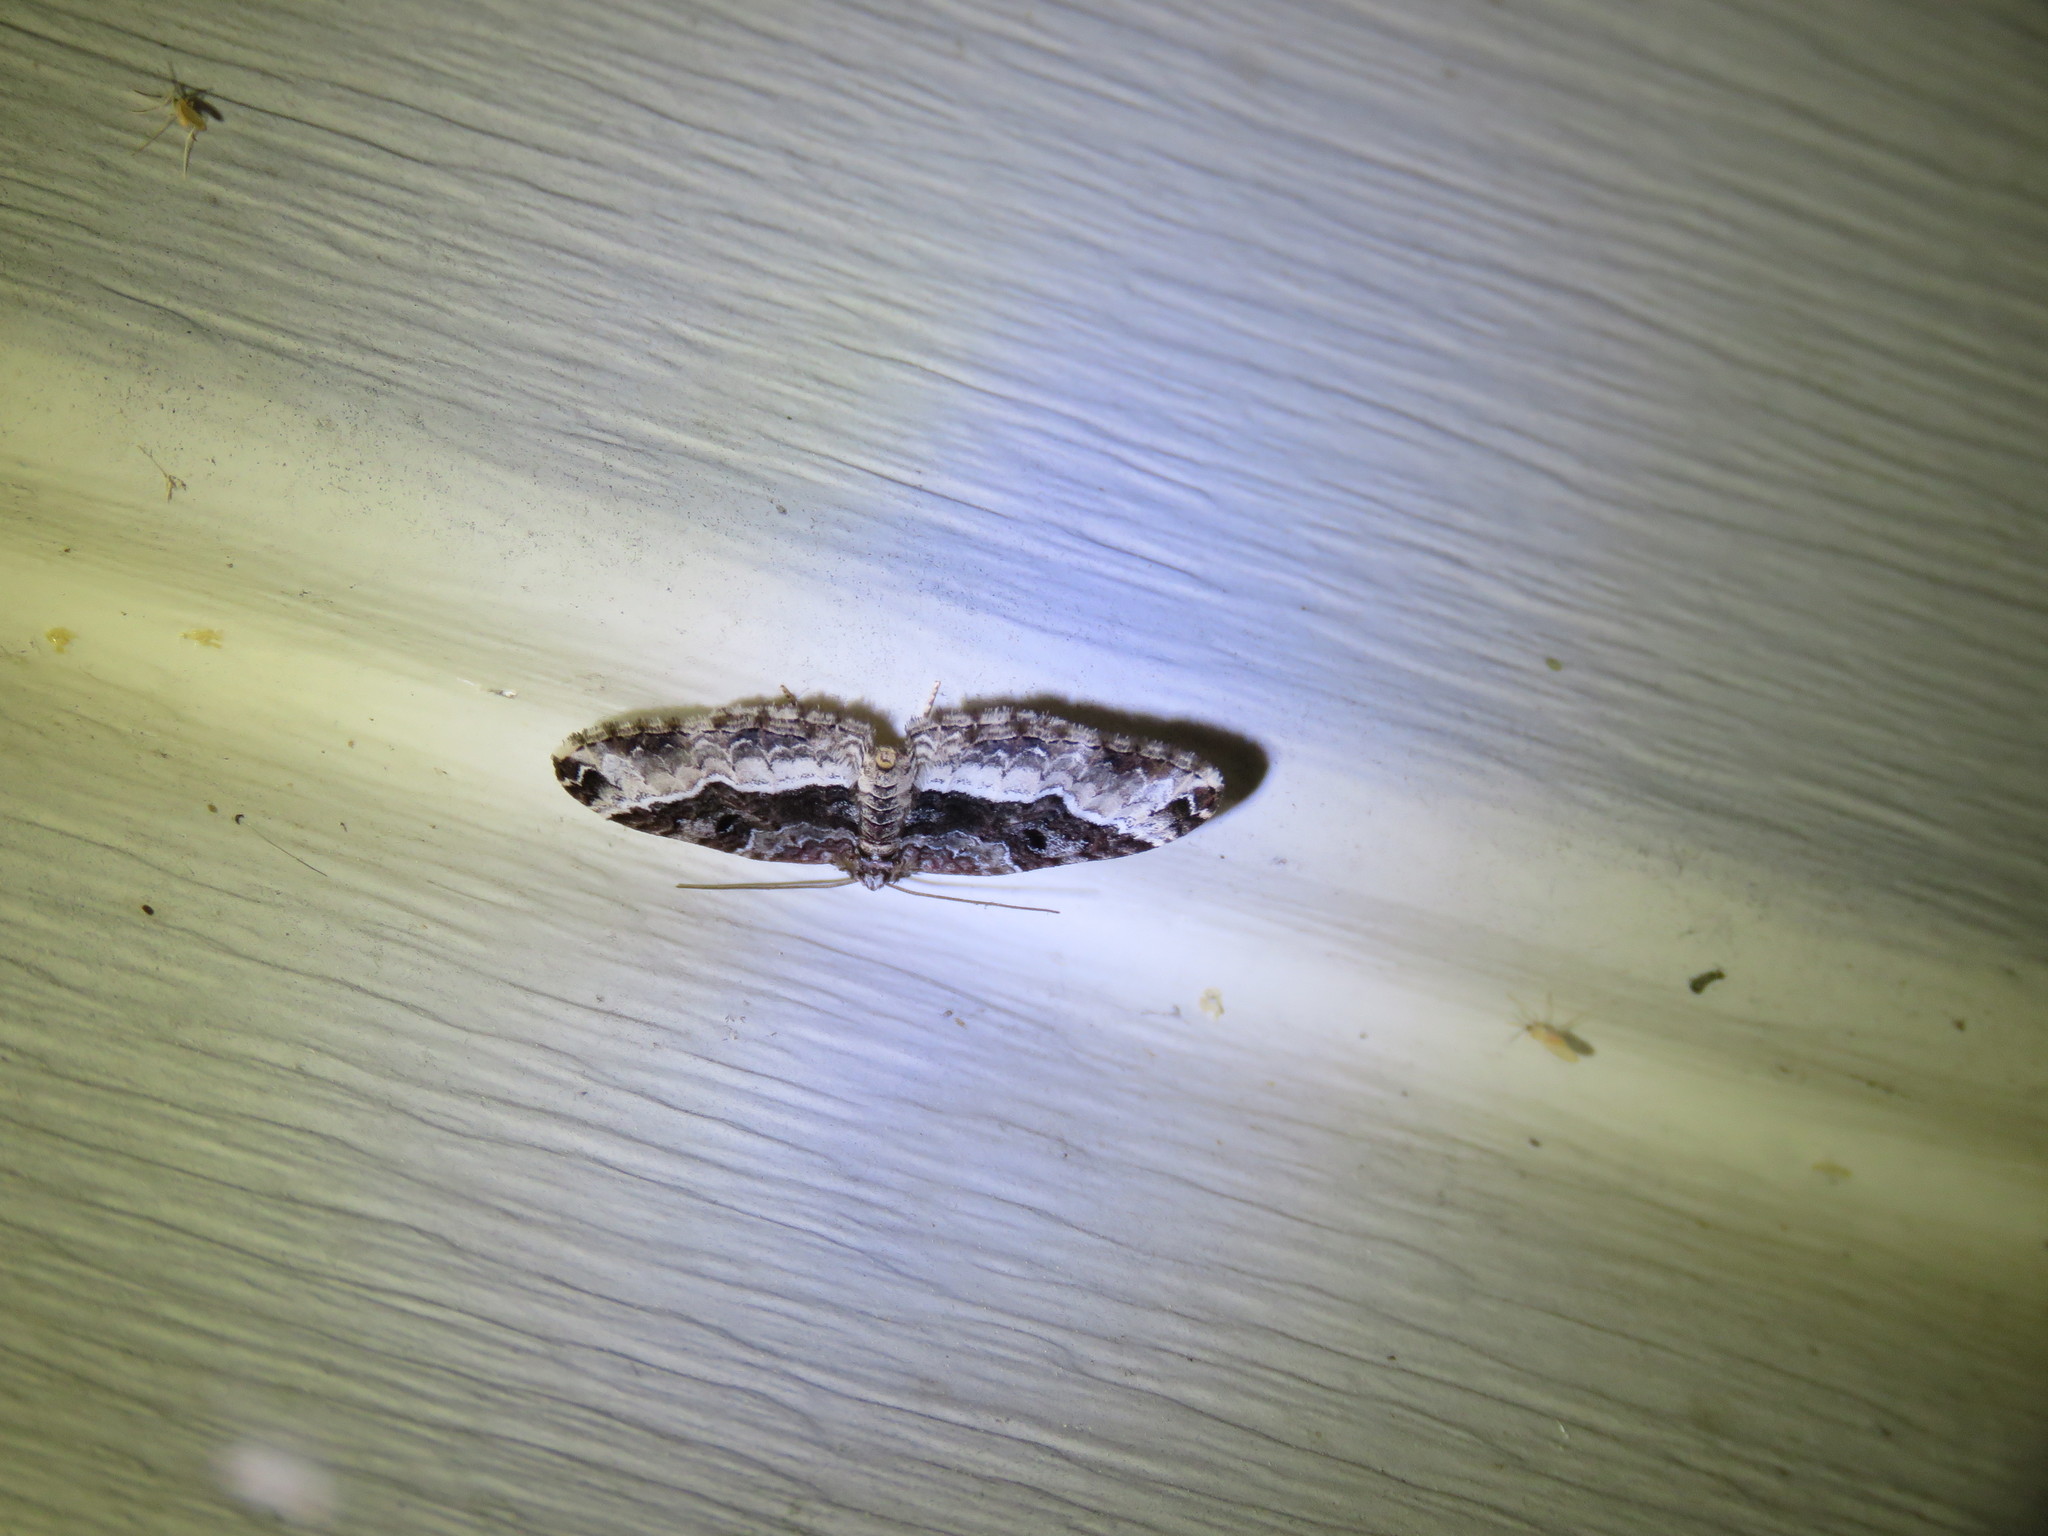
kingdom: Animalia
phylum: Arthropoda
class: Insecta
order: Lepidoptera
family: Geometridae
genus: Euphyia
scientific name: Euphyia intermediata
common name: Sharp-angled carpet
